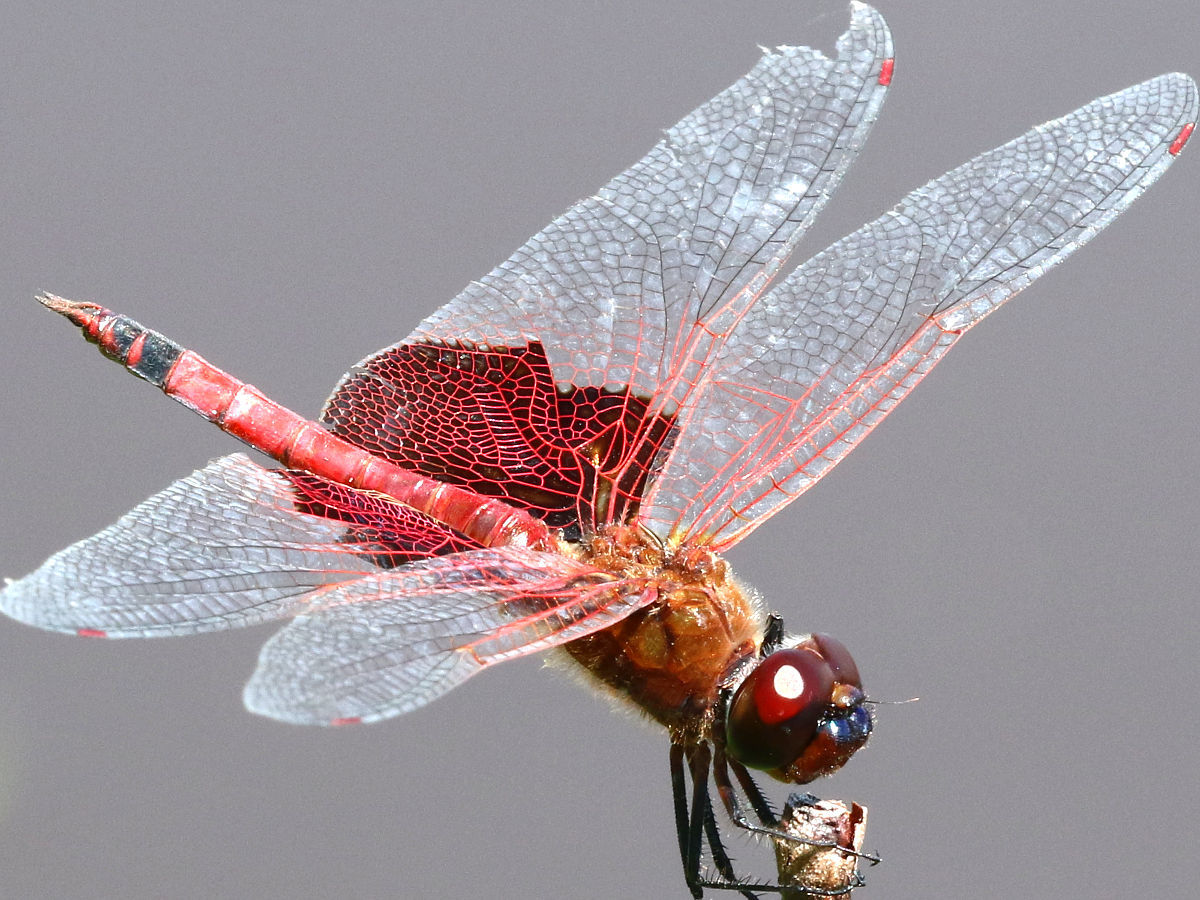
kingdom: Animalia
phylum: Arthropoda
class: Insecta
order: Odonata
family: Libellulidae
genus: Tramea
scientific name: Tramea carolina
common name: Carolina saddlebags
